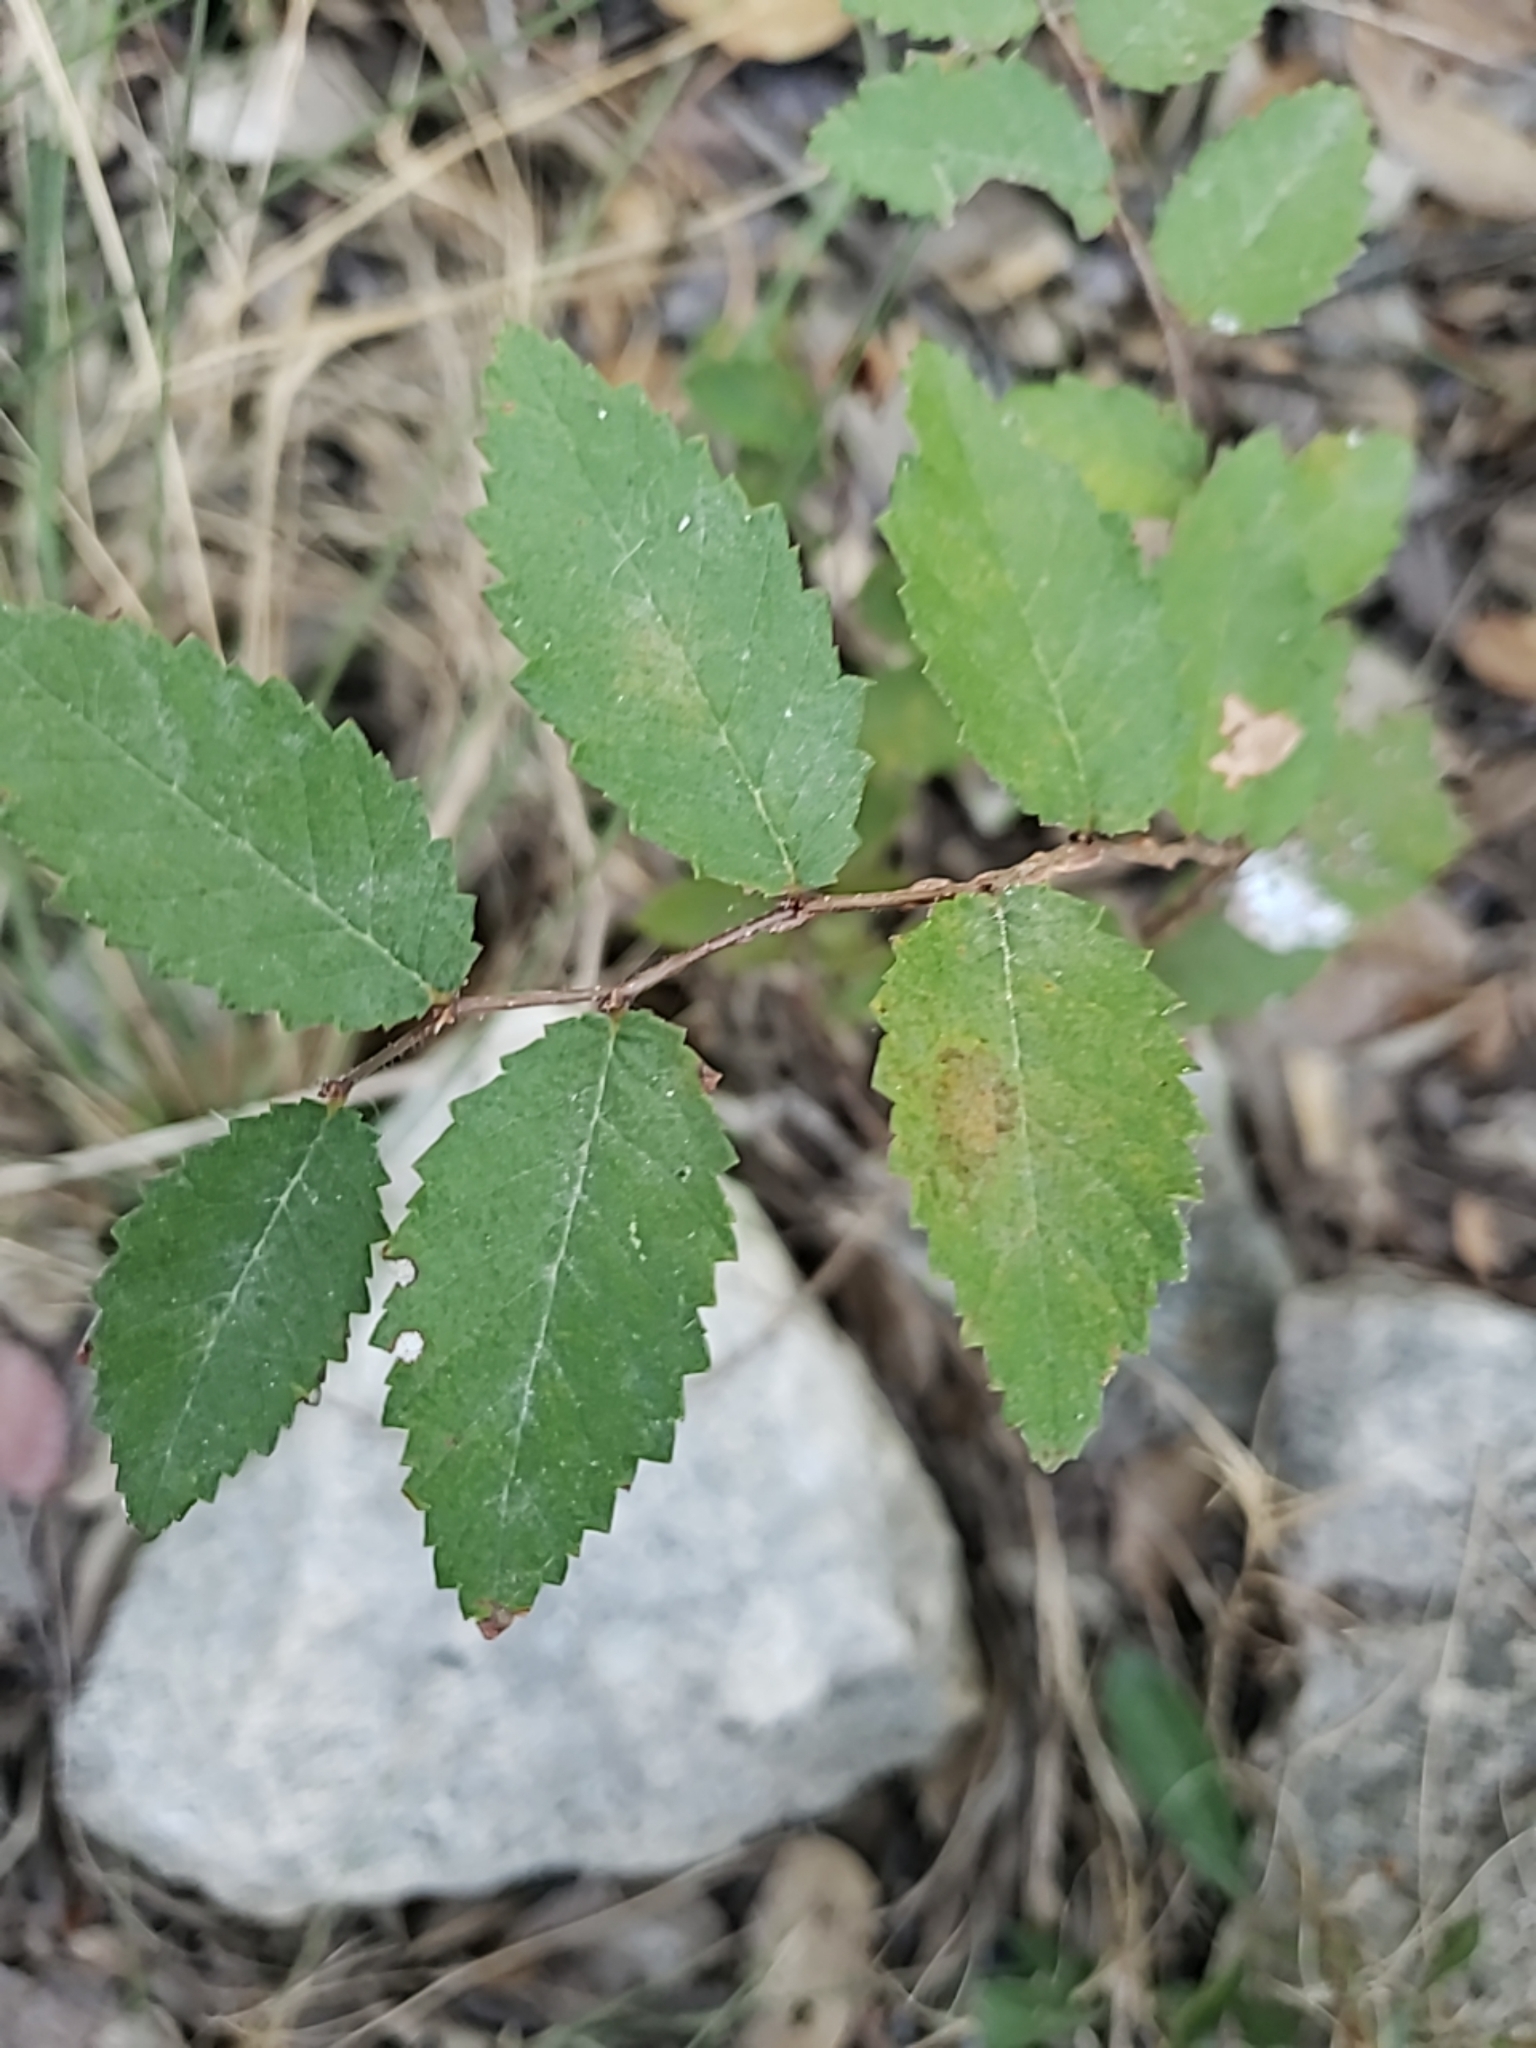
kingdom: Plantae
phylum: Tracheophyta
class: Magnoliopsida
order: Rosales
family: Ulmaceae
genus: Ulmus
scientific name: Ulmus crassifolia
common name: Basket elm
